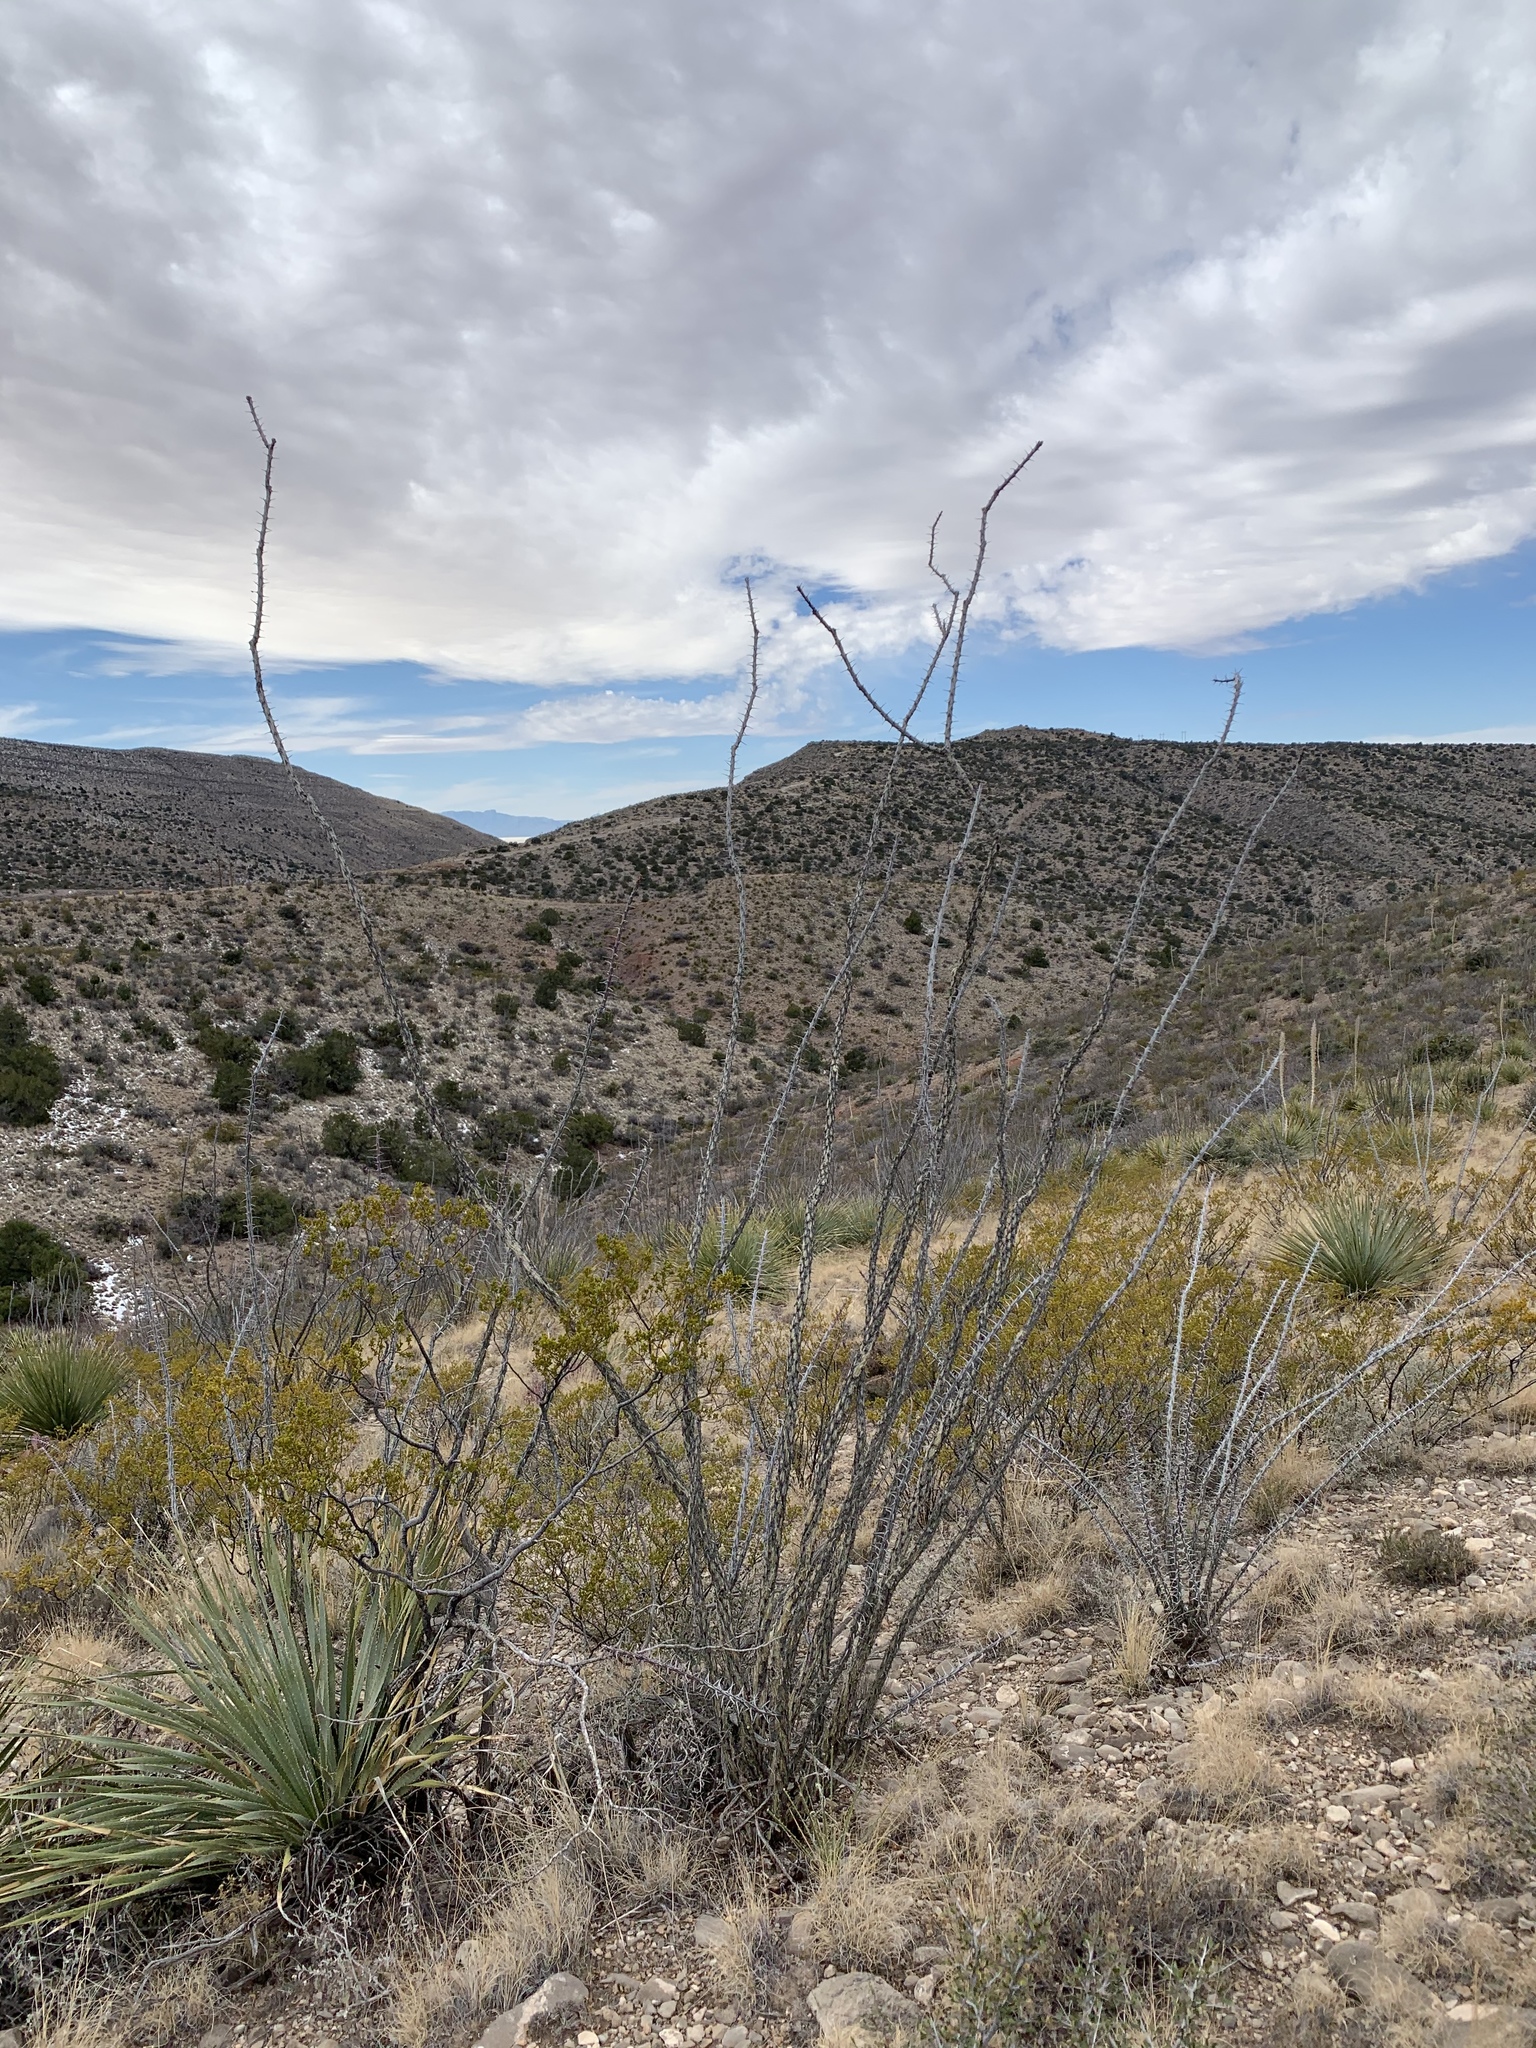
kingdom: Plantae
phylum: Tracheophyta
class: Magnoliopsida
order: Ericales
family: Fouquieriaceae
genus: Fouquieria
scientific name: Fouquieria splendens
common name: Vine-cactus
